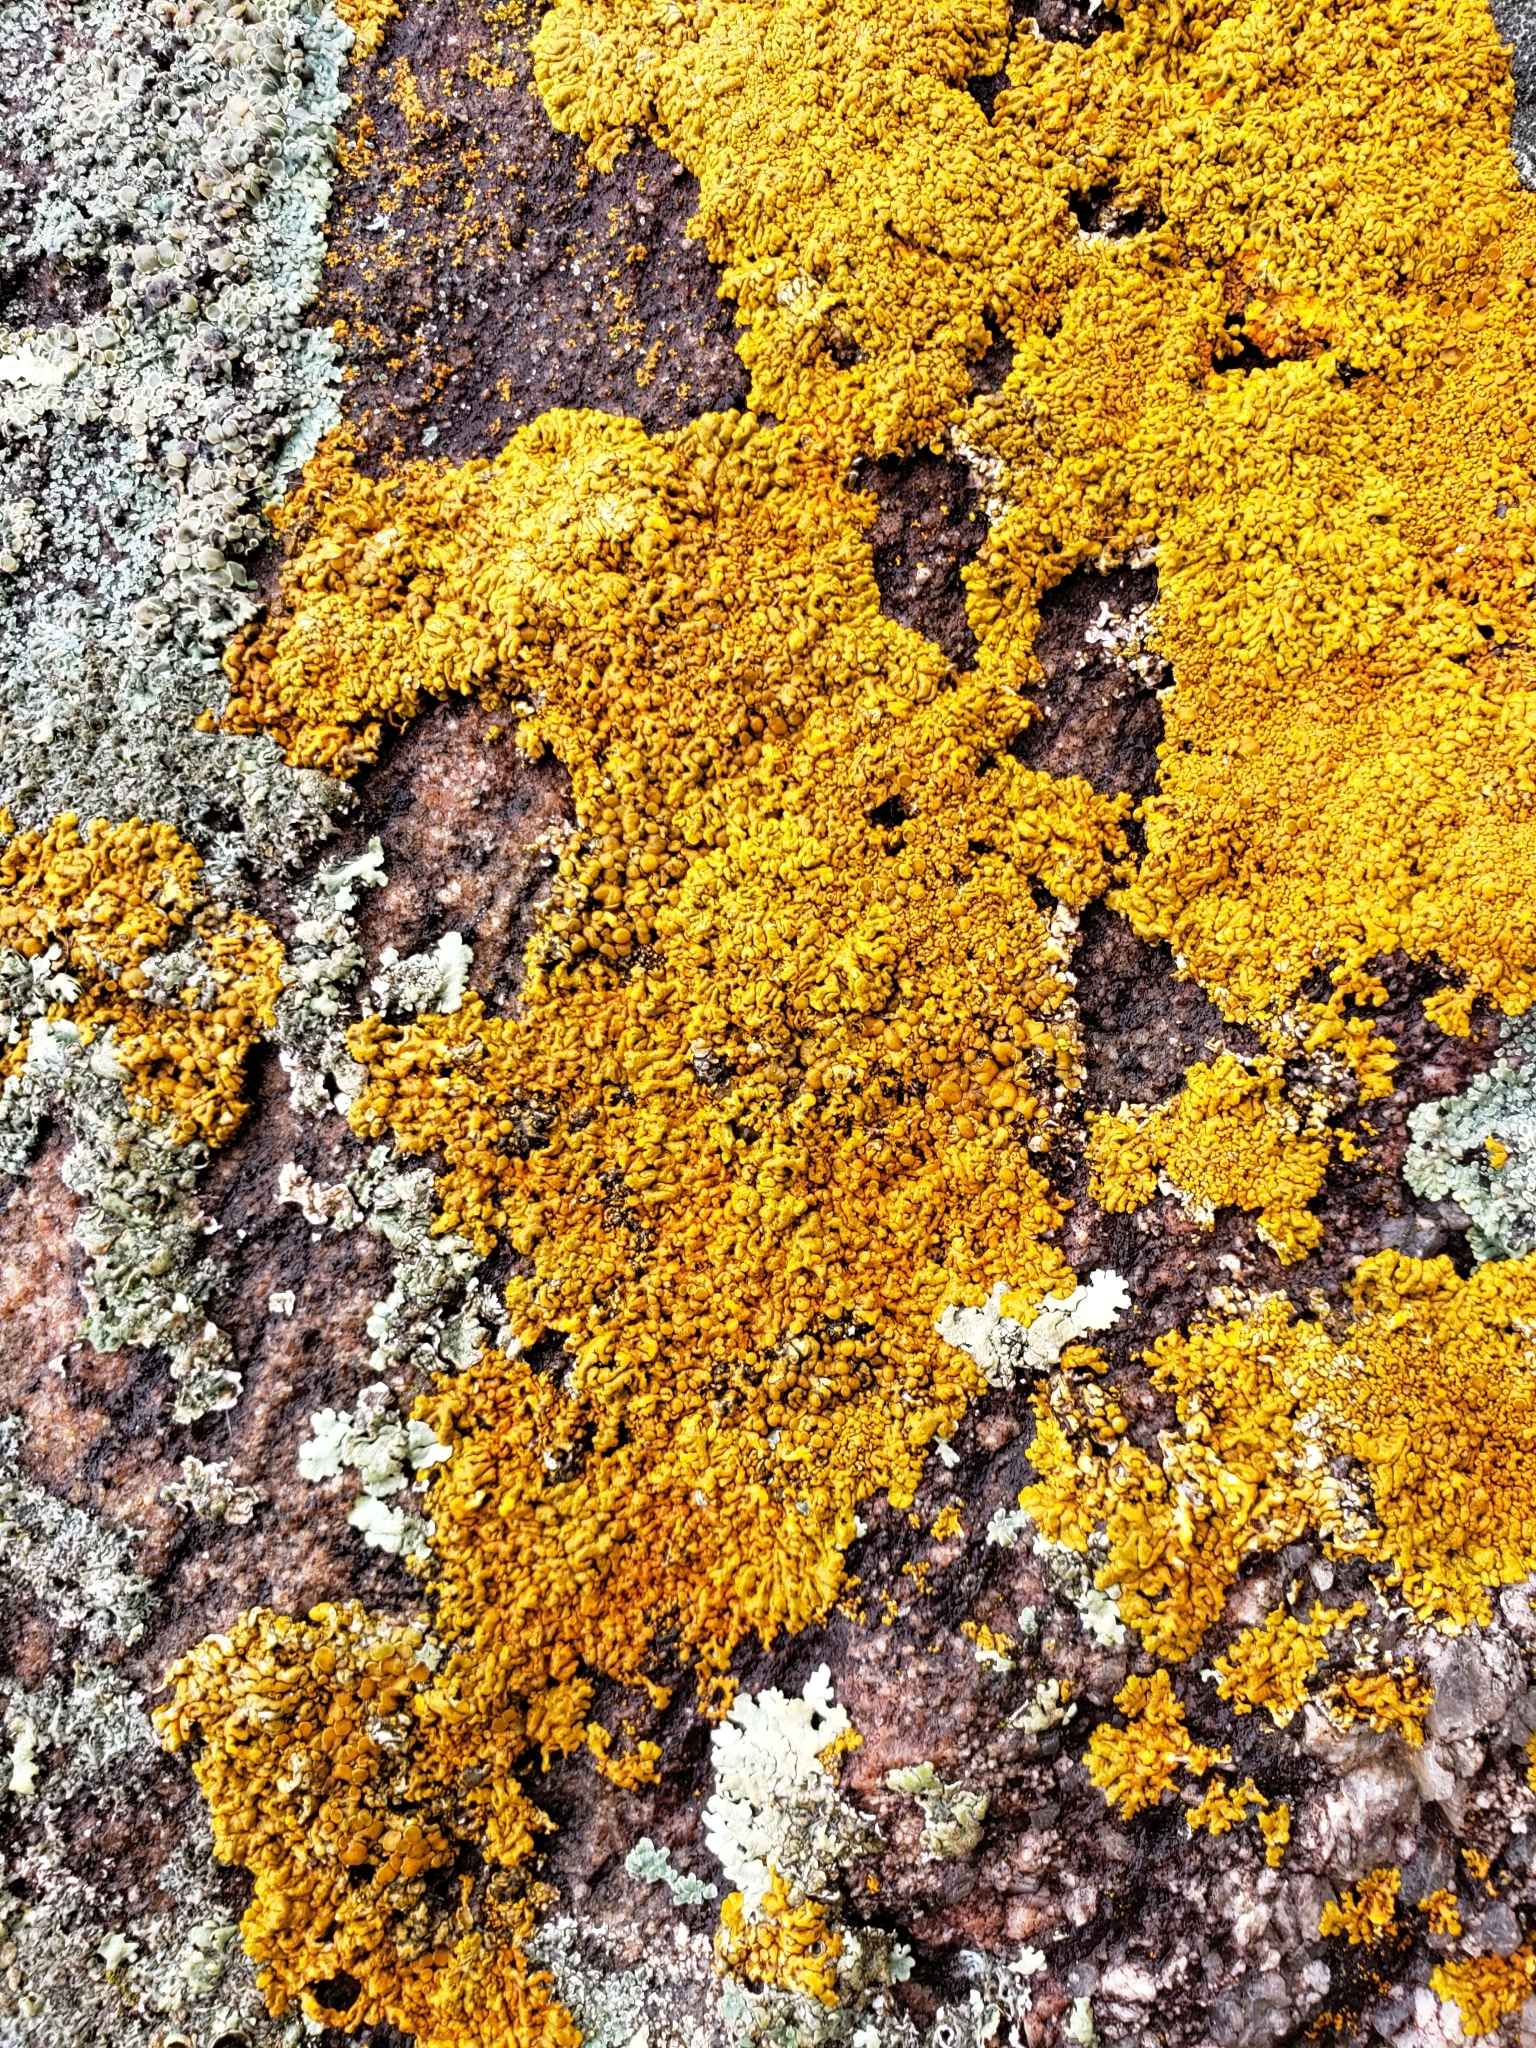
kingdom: Fungi
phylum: Ascomycota
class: Lecanoromycetes
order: Teloschistales
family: Teloschistaceae
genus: Xanthoria
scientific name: Xanthoria elegans
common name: Elegant sunburst lichen
